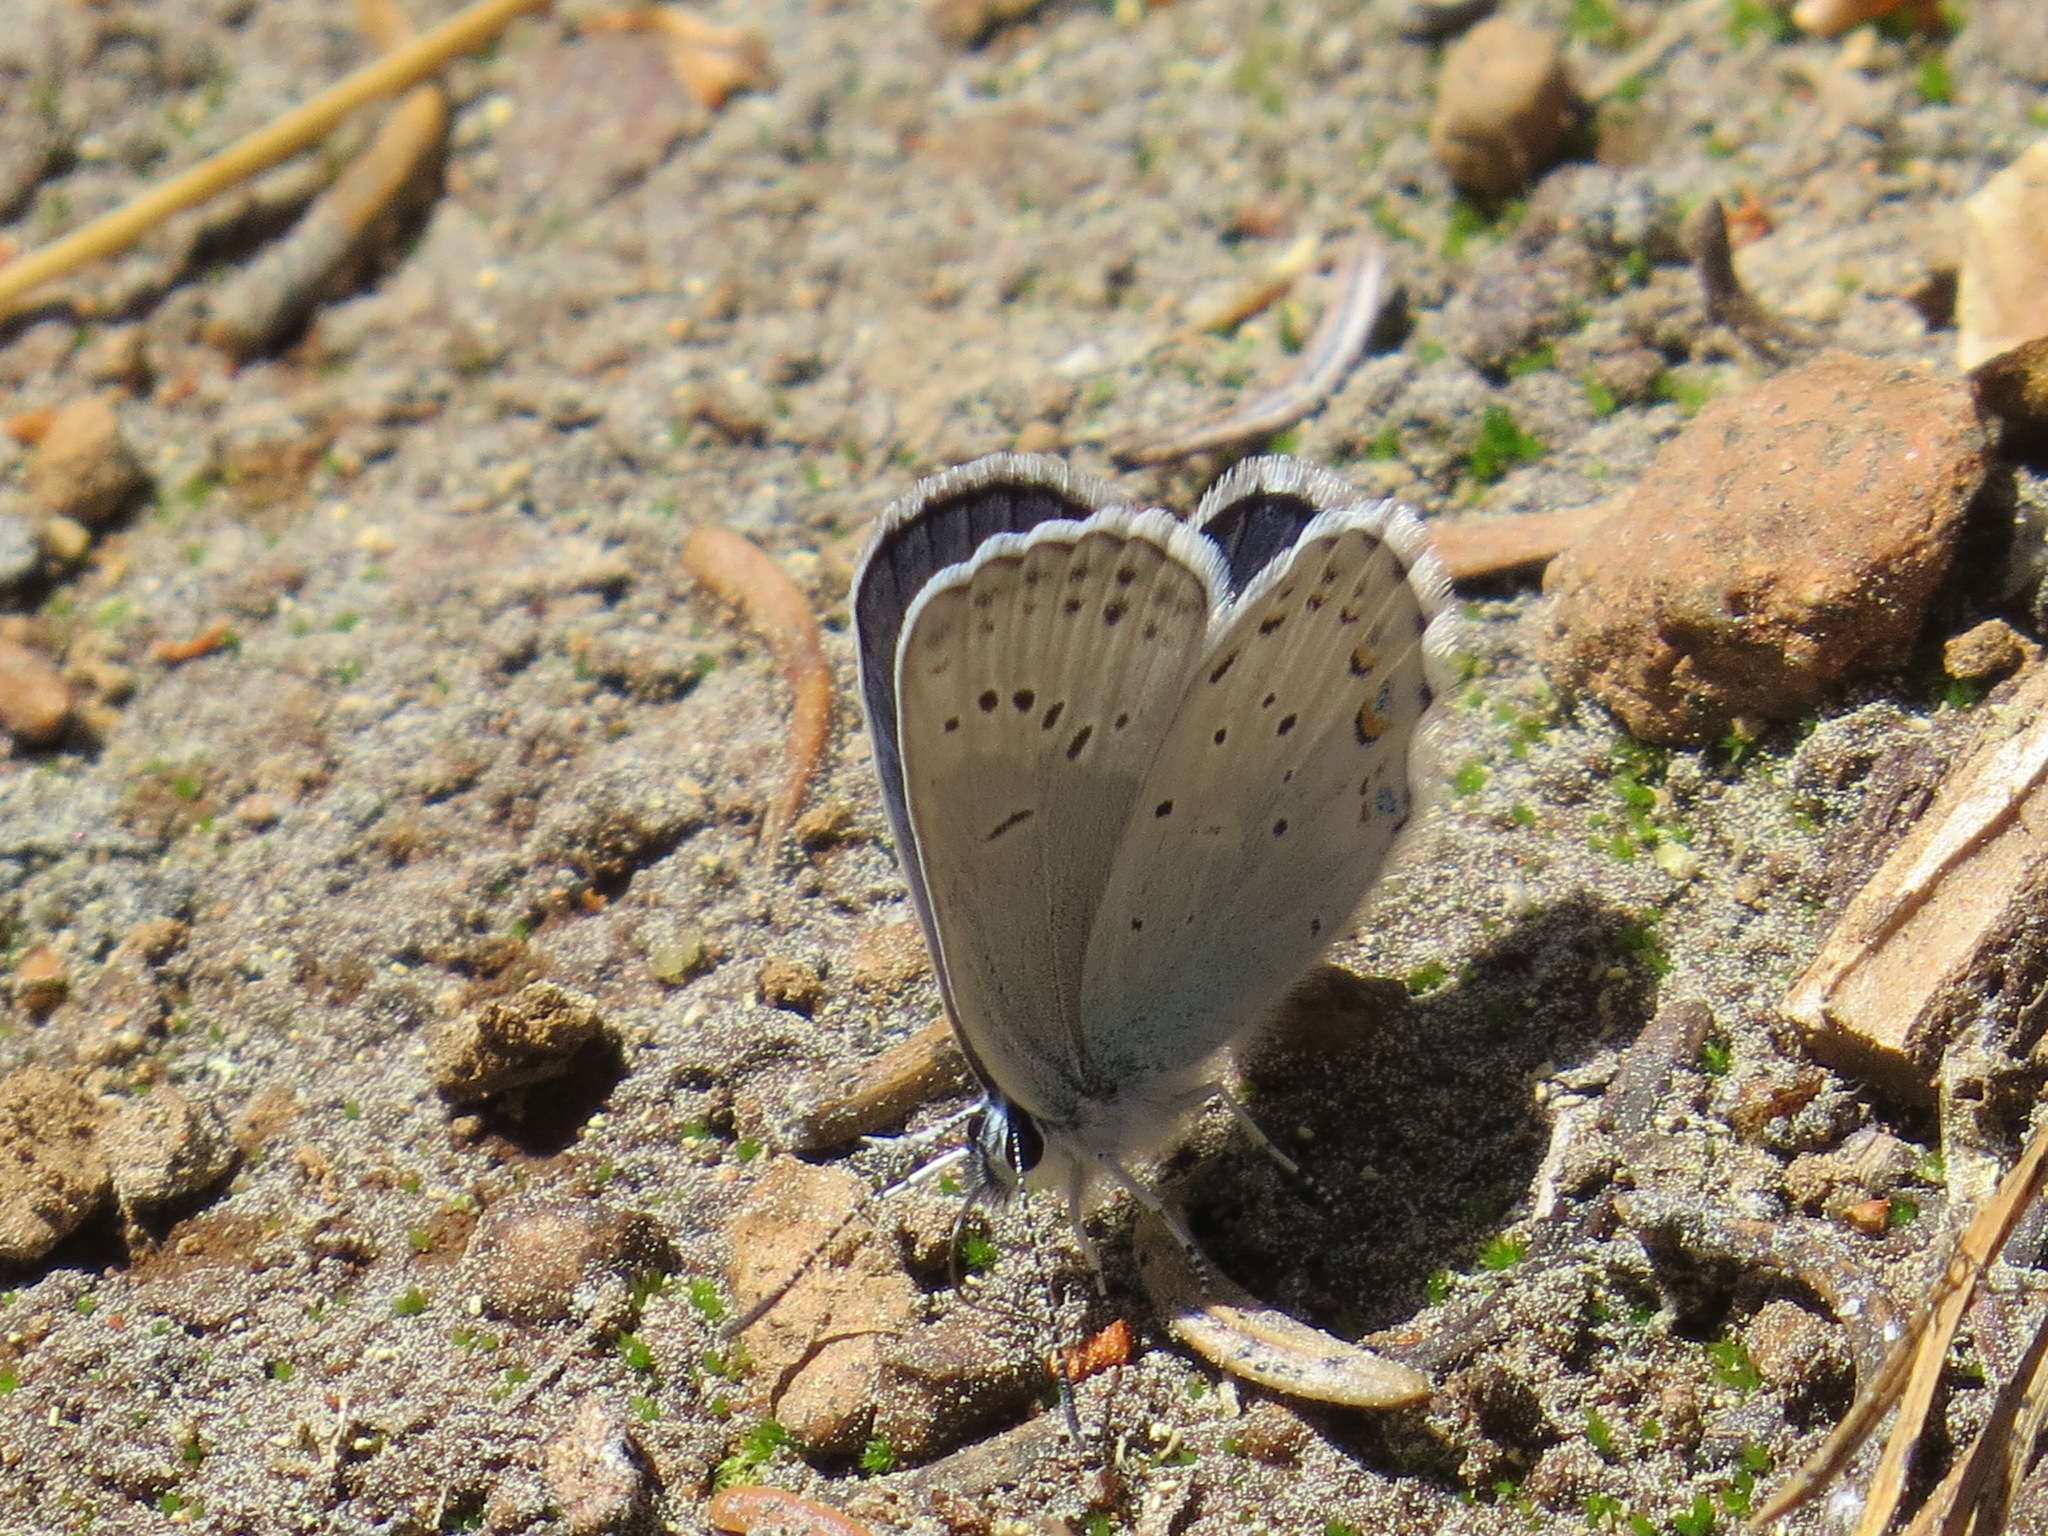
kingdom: Animalia
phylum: Arthropoda
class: Insecta
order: Lepidoptera
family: Lycaenidae
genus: Lycaeides
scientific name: Lycaeides anna
